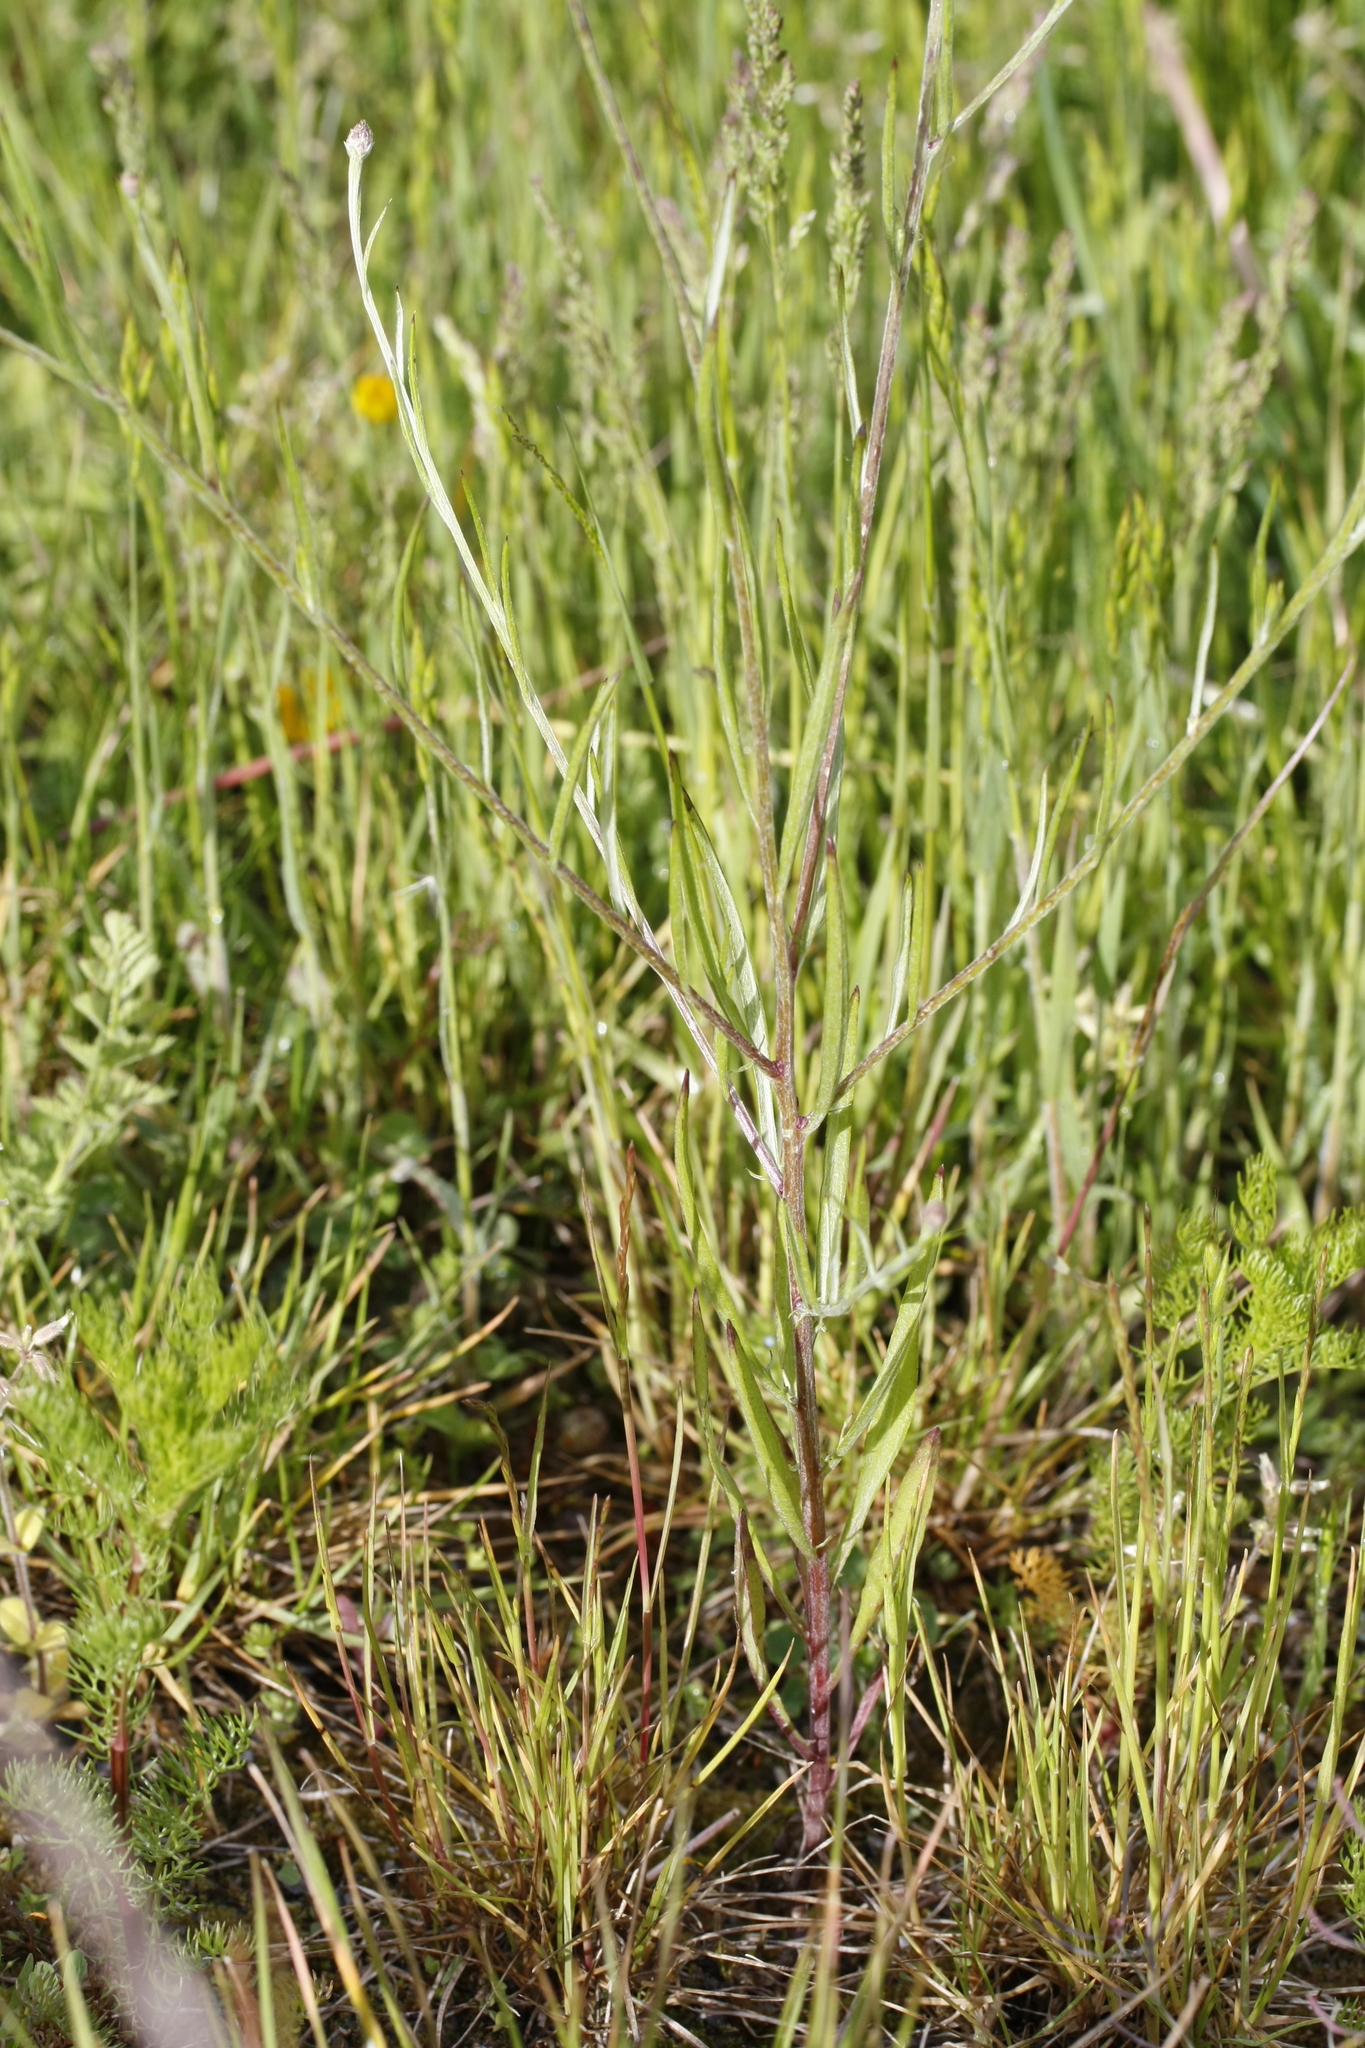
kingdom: Plantae
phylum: Tracheophyta
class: Magnoliopsida
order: Asterales
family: Asteraceae
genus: Centaurea
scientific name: Centaurea cyanus
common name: Cornflower
